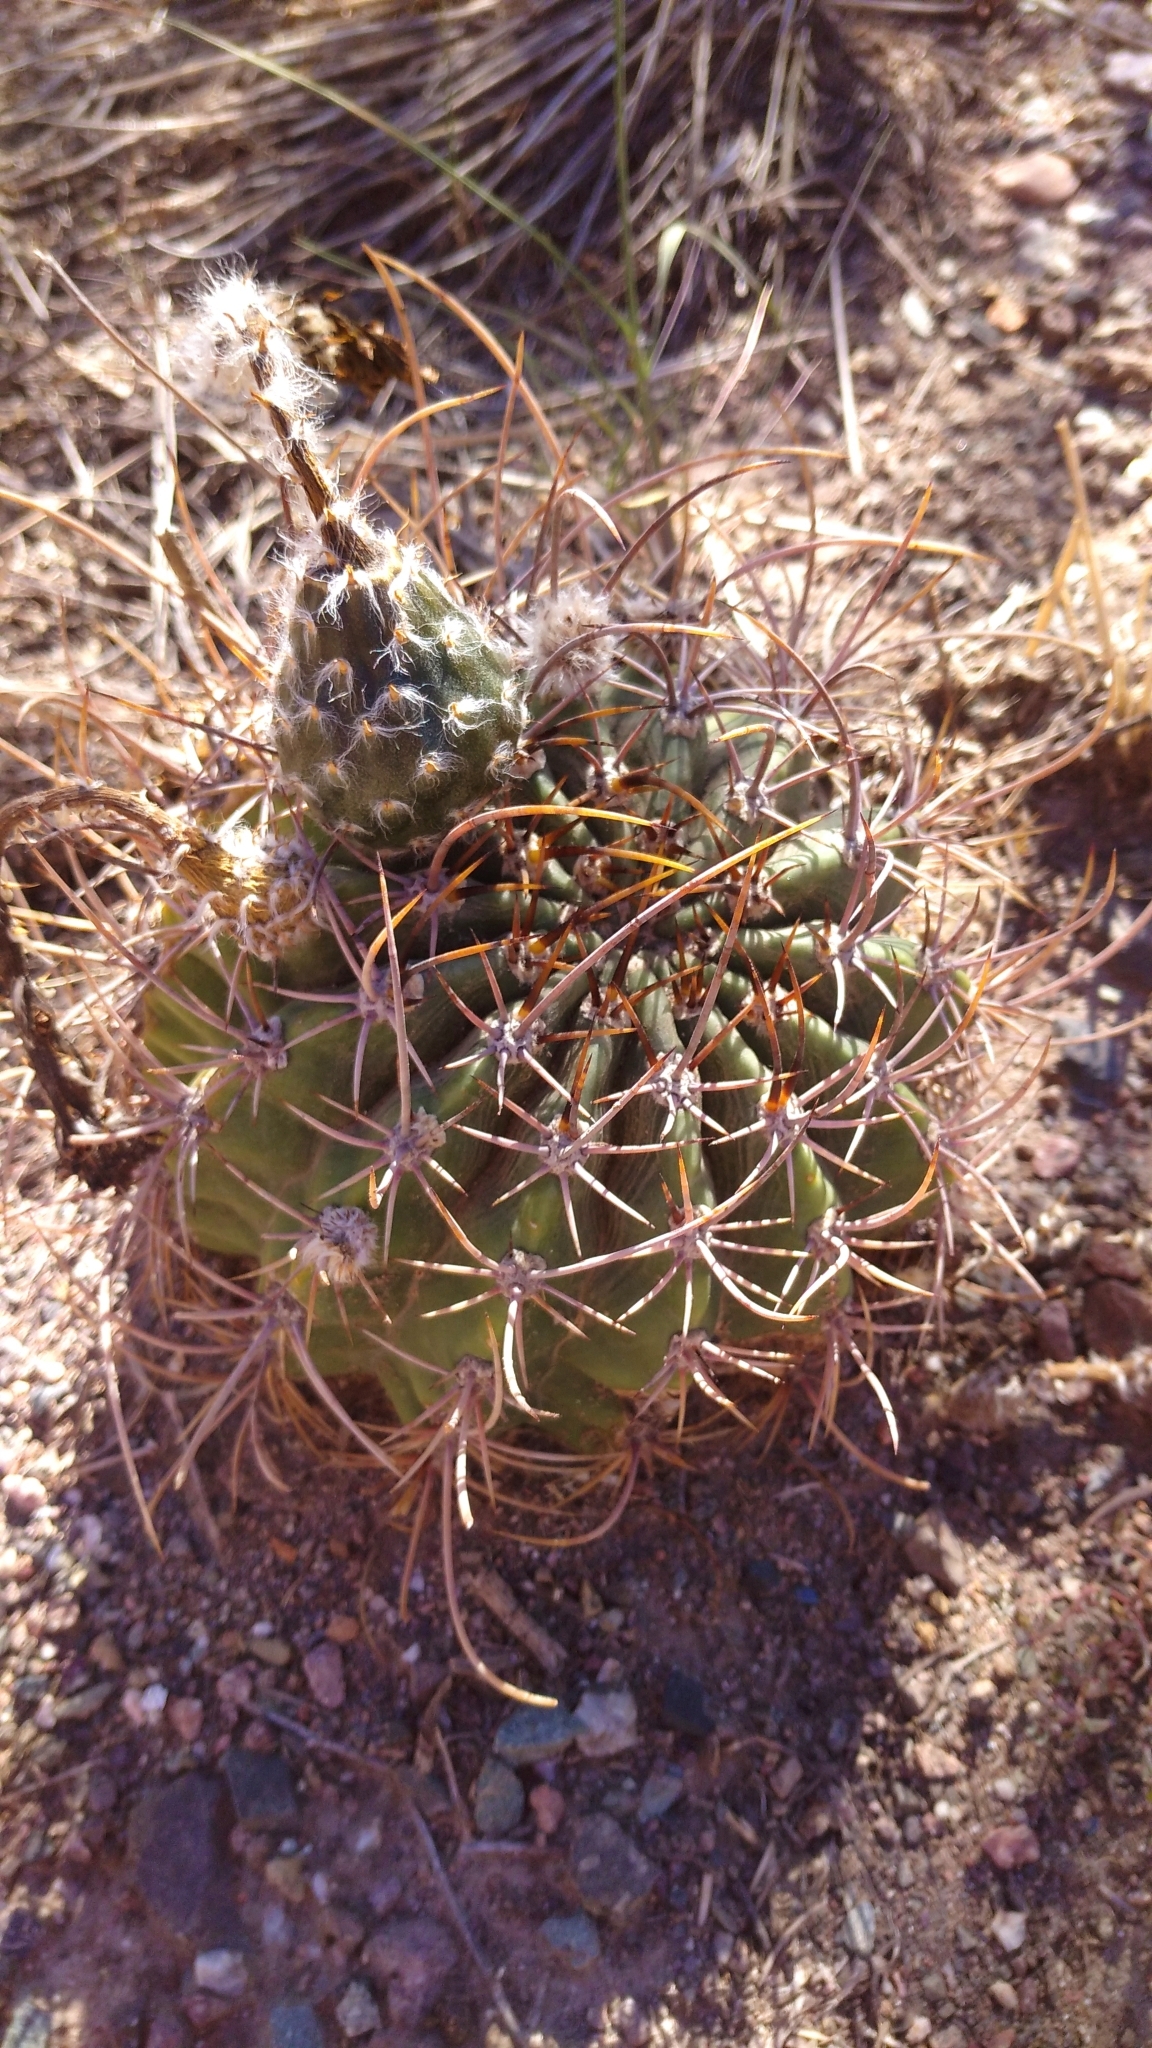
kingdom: Plantae
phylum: Tracheophyta
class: Magnoliopsida
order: Caryophyllales
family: Cactaceae
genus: Acanthocalycium
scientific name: Acanthocalycium leucanthum
